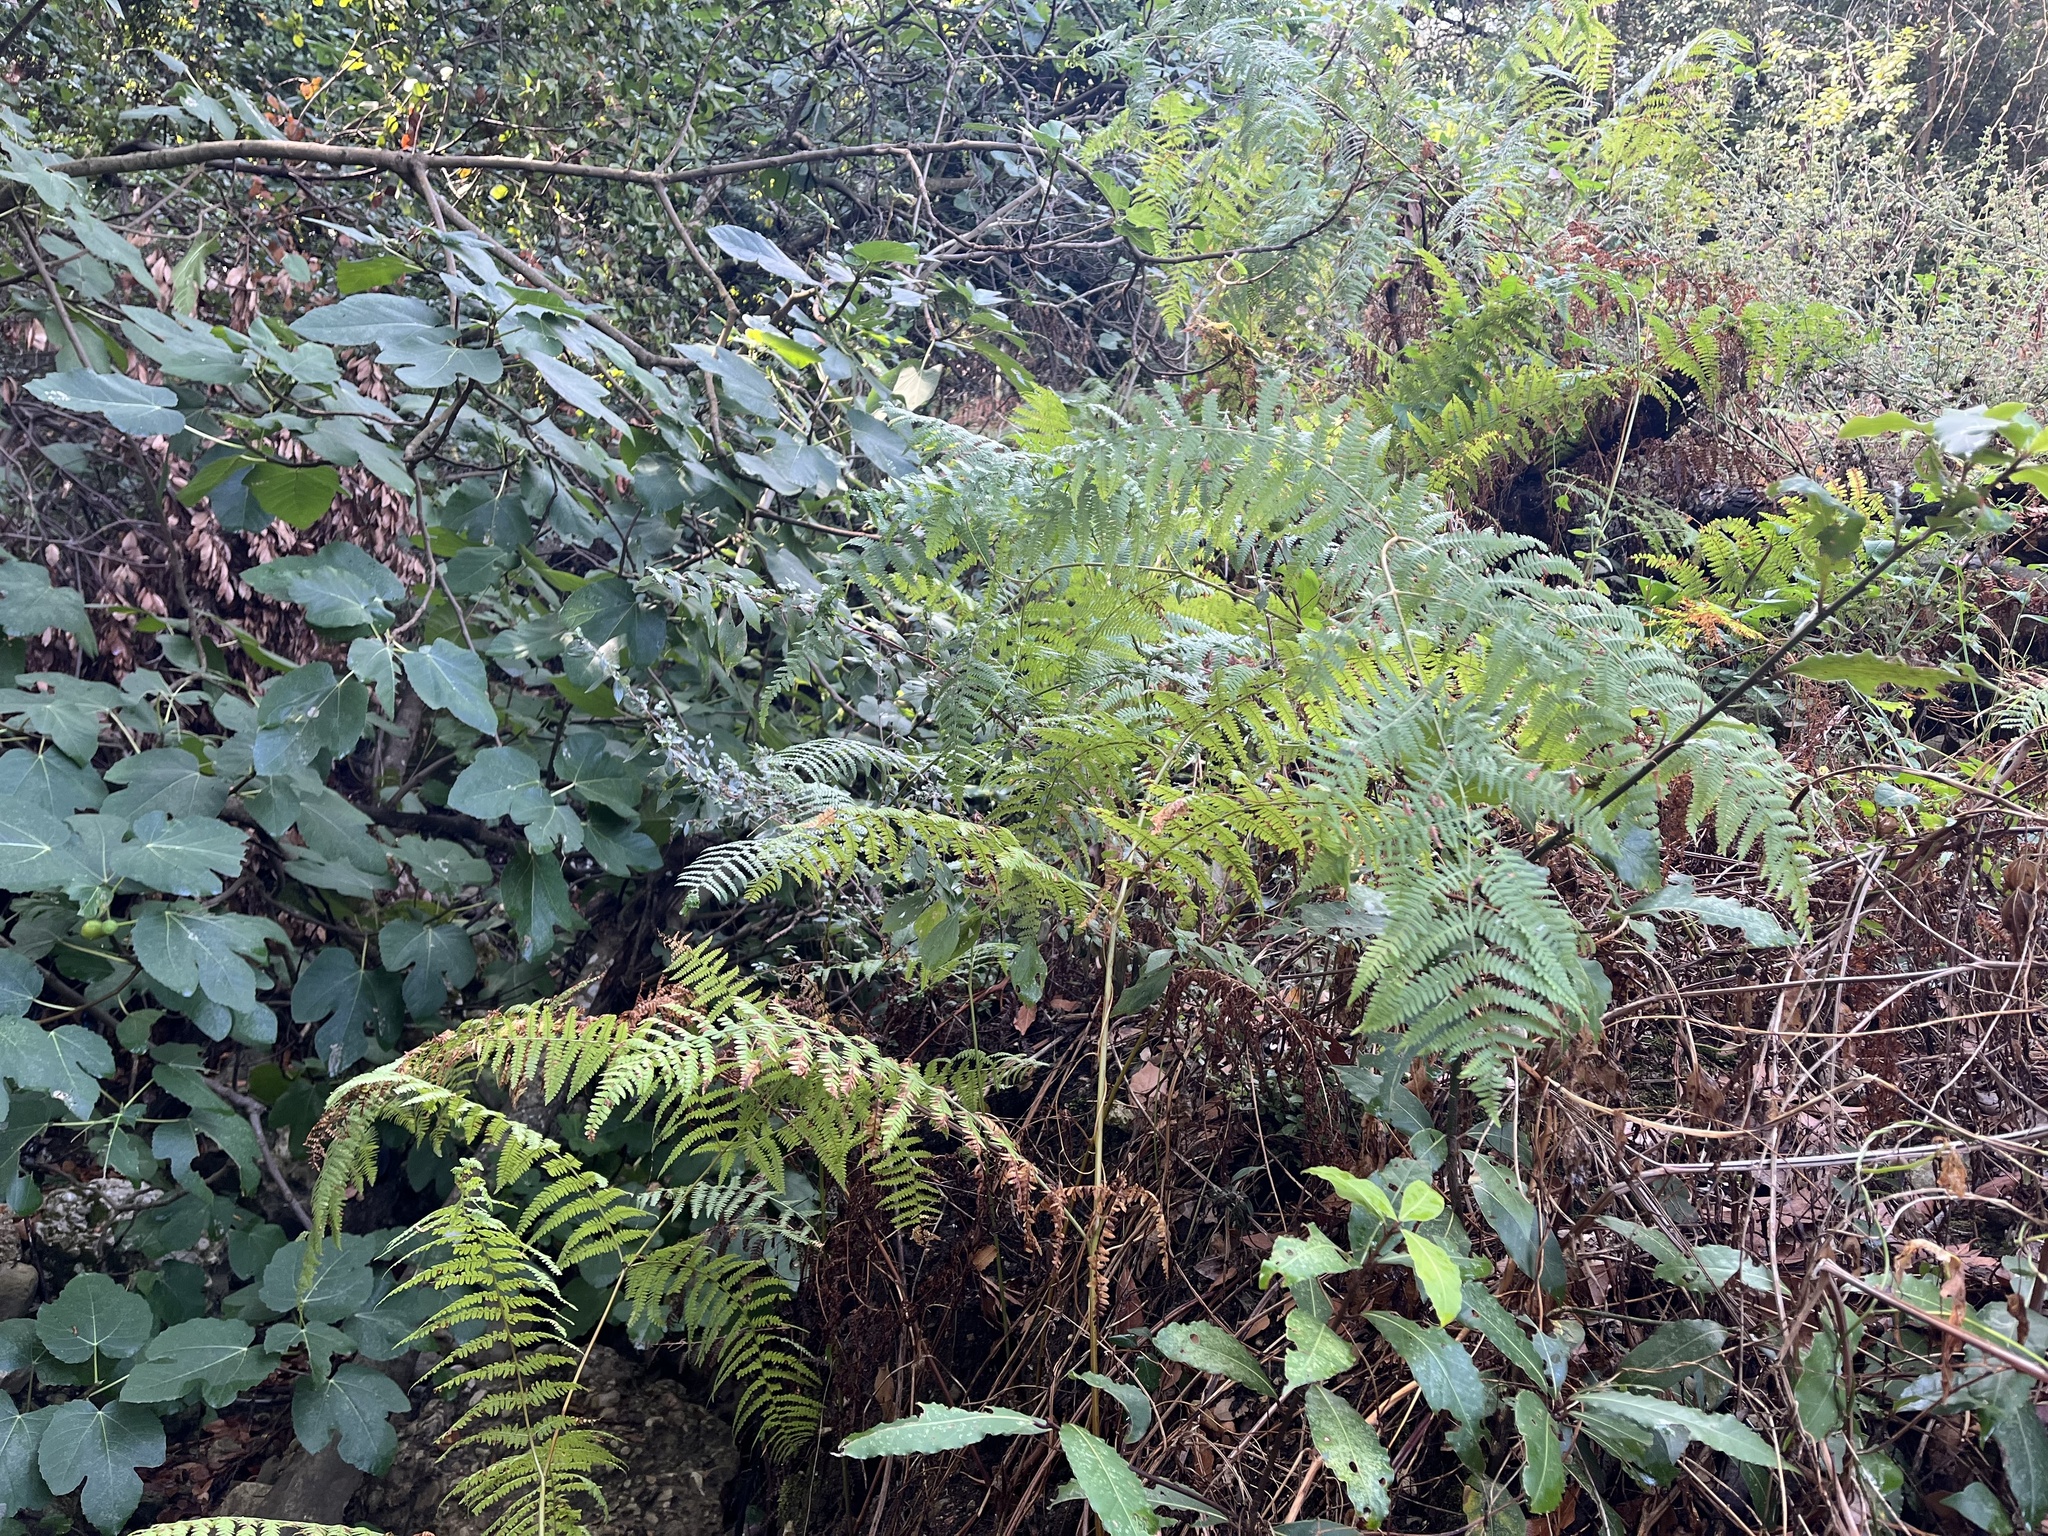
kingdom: Plantae
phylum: Tracheophyta
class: Polypodiopsida
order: Polypodiales
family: Dennstaedtiaceae
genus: Pteridium
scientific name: Pteridium aquilinum
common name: Bracken
